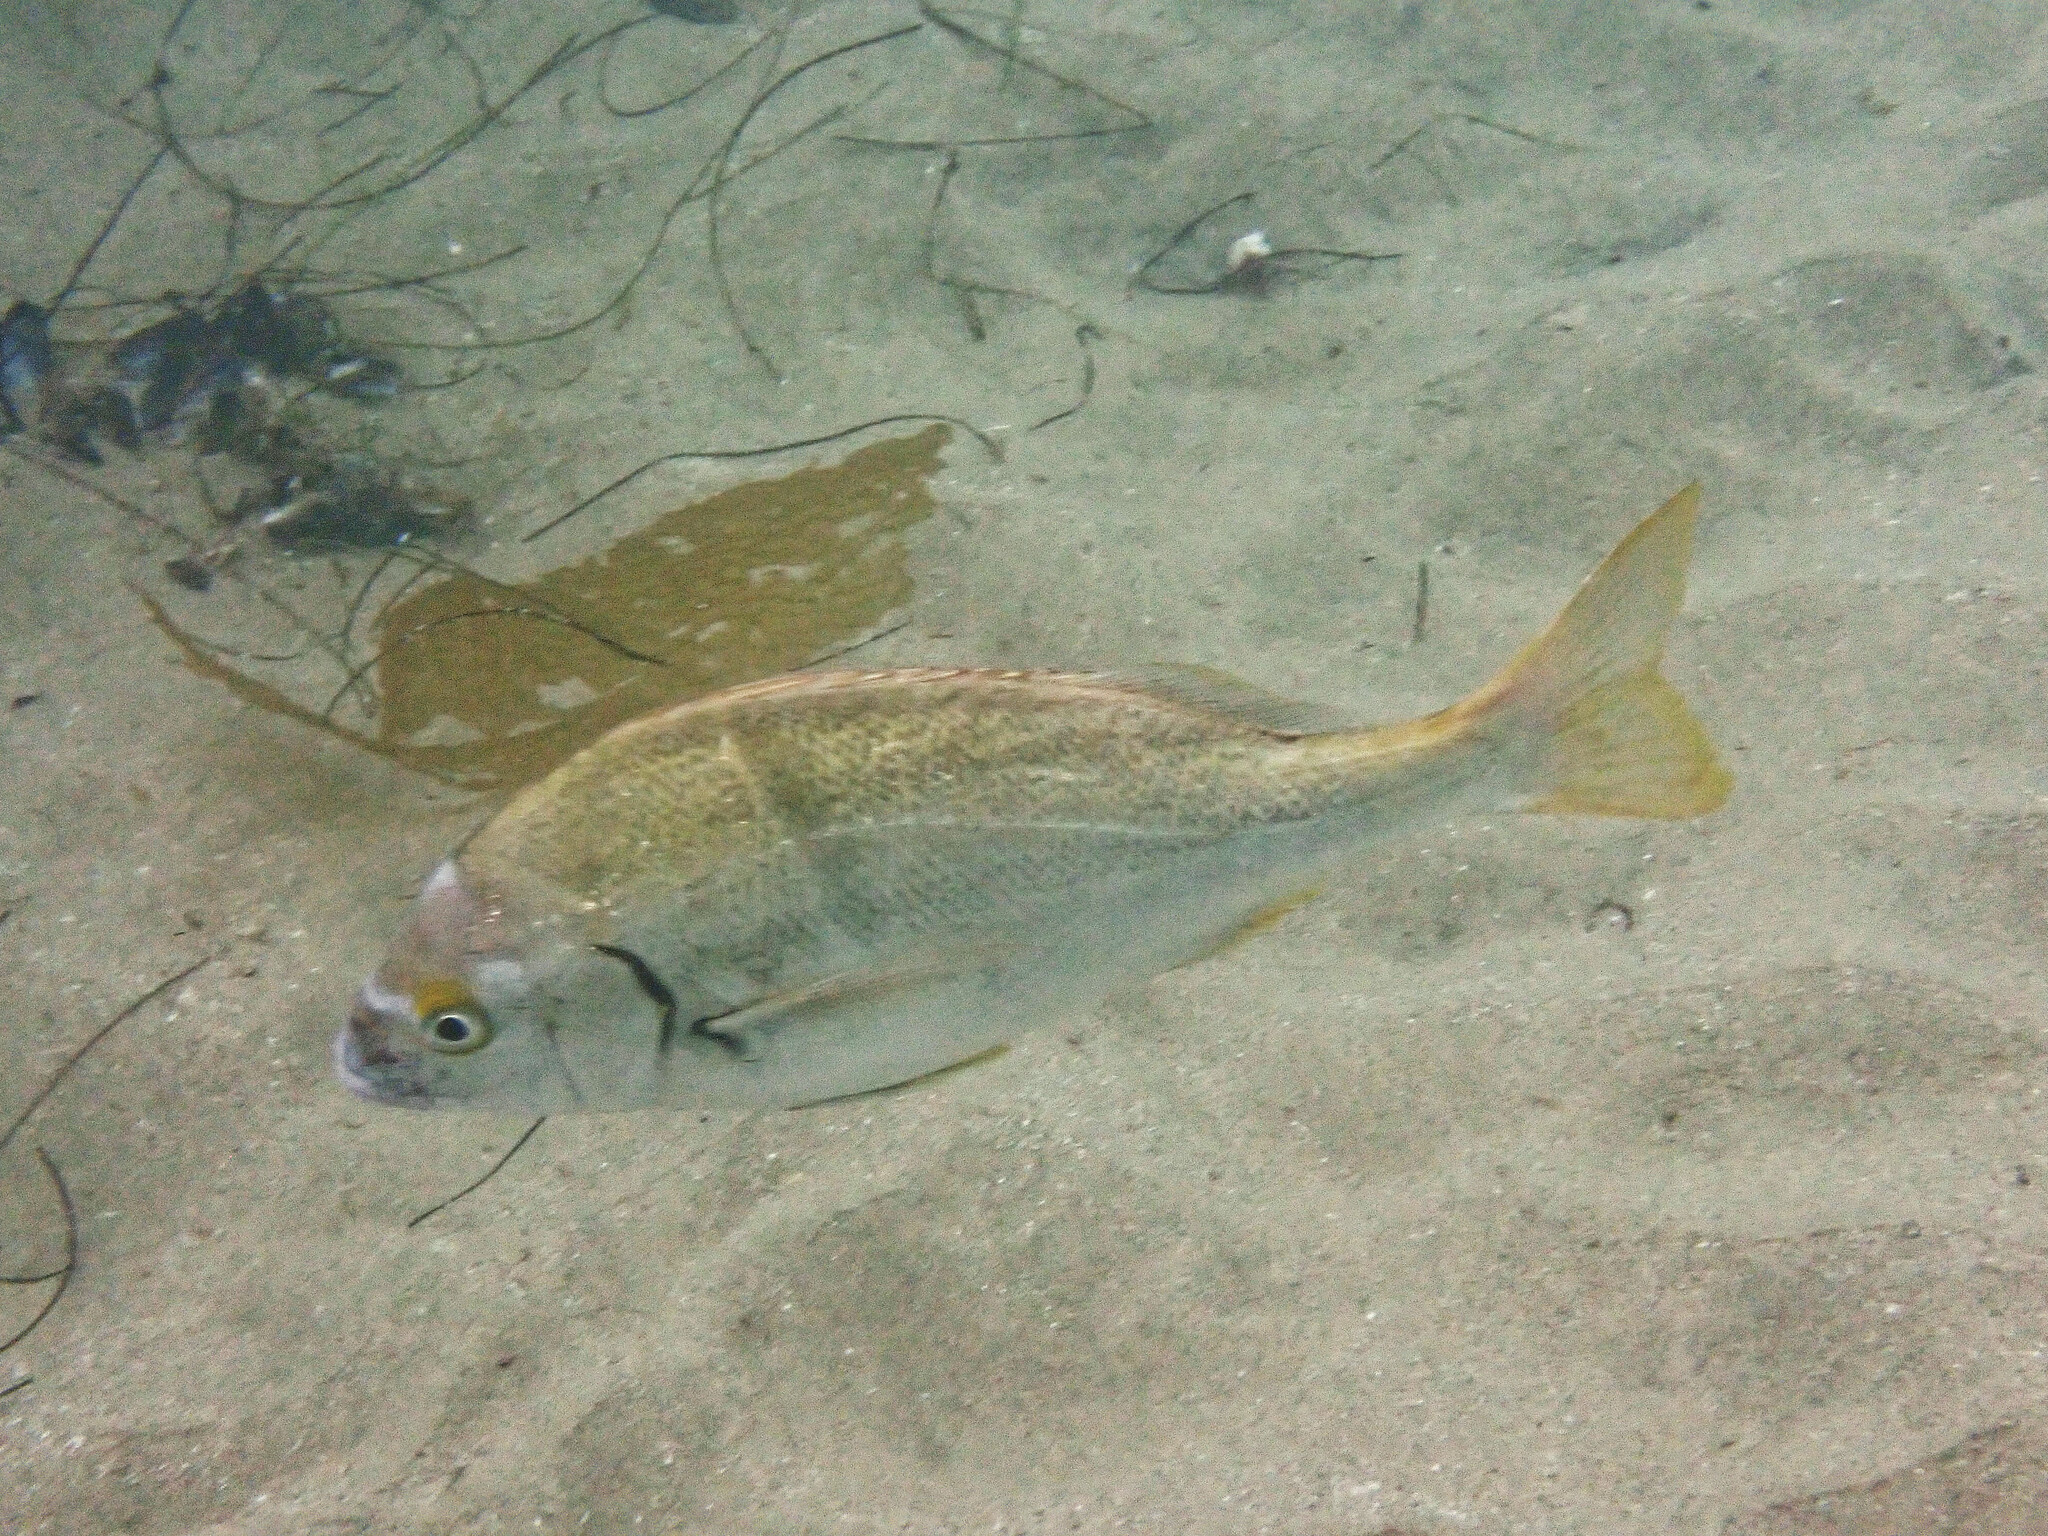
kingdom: Animalia
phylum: Chordata
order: Perciformes
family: Haemulidae
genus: Anisotremus
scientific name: Anisotremus davidsonii
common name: Grunt
